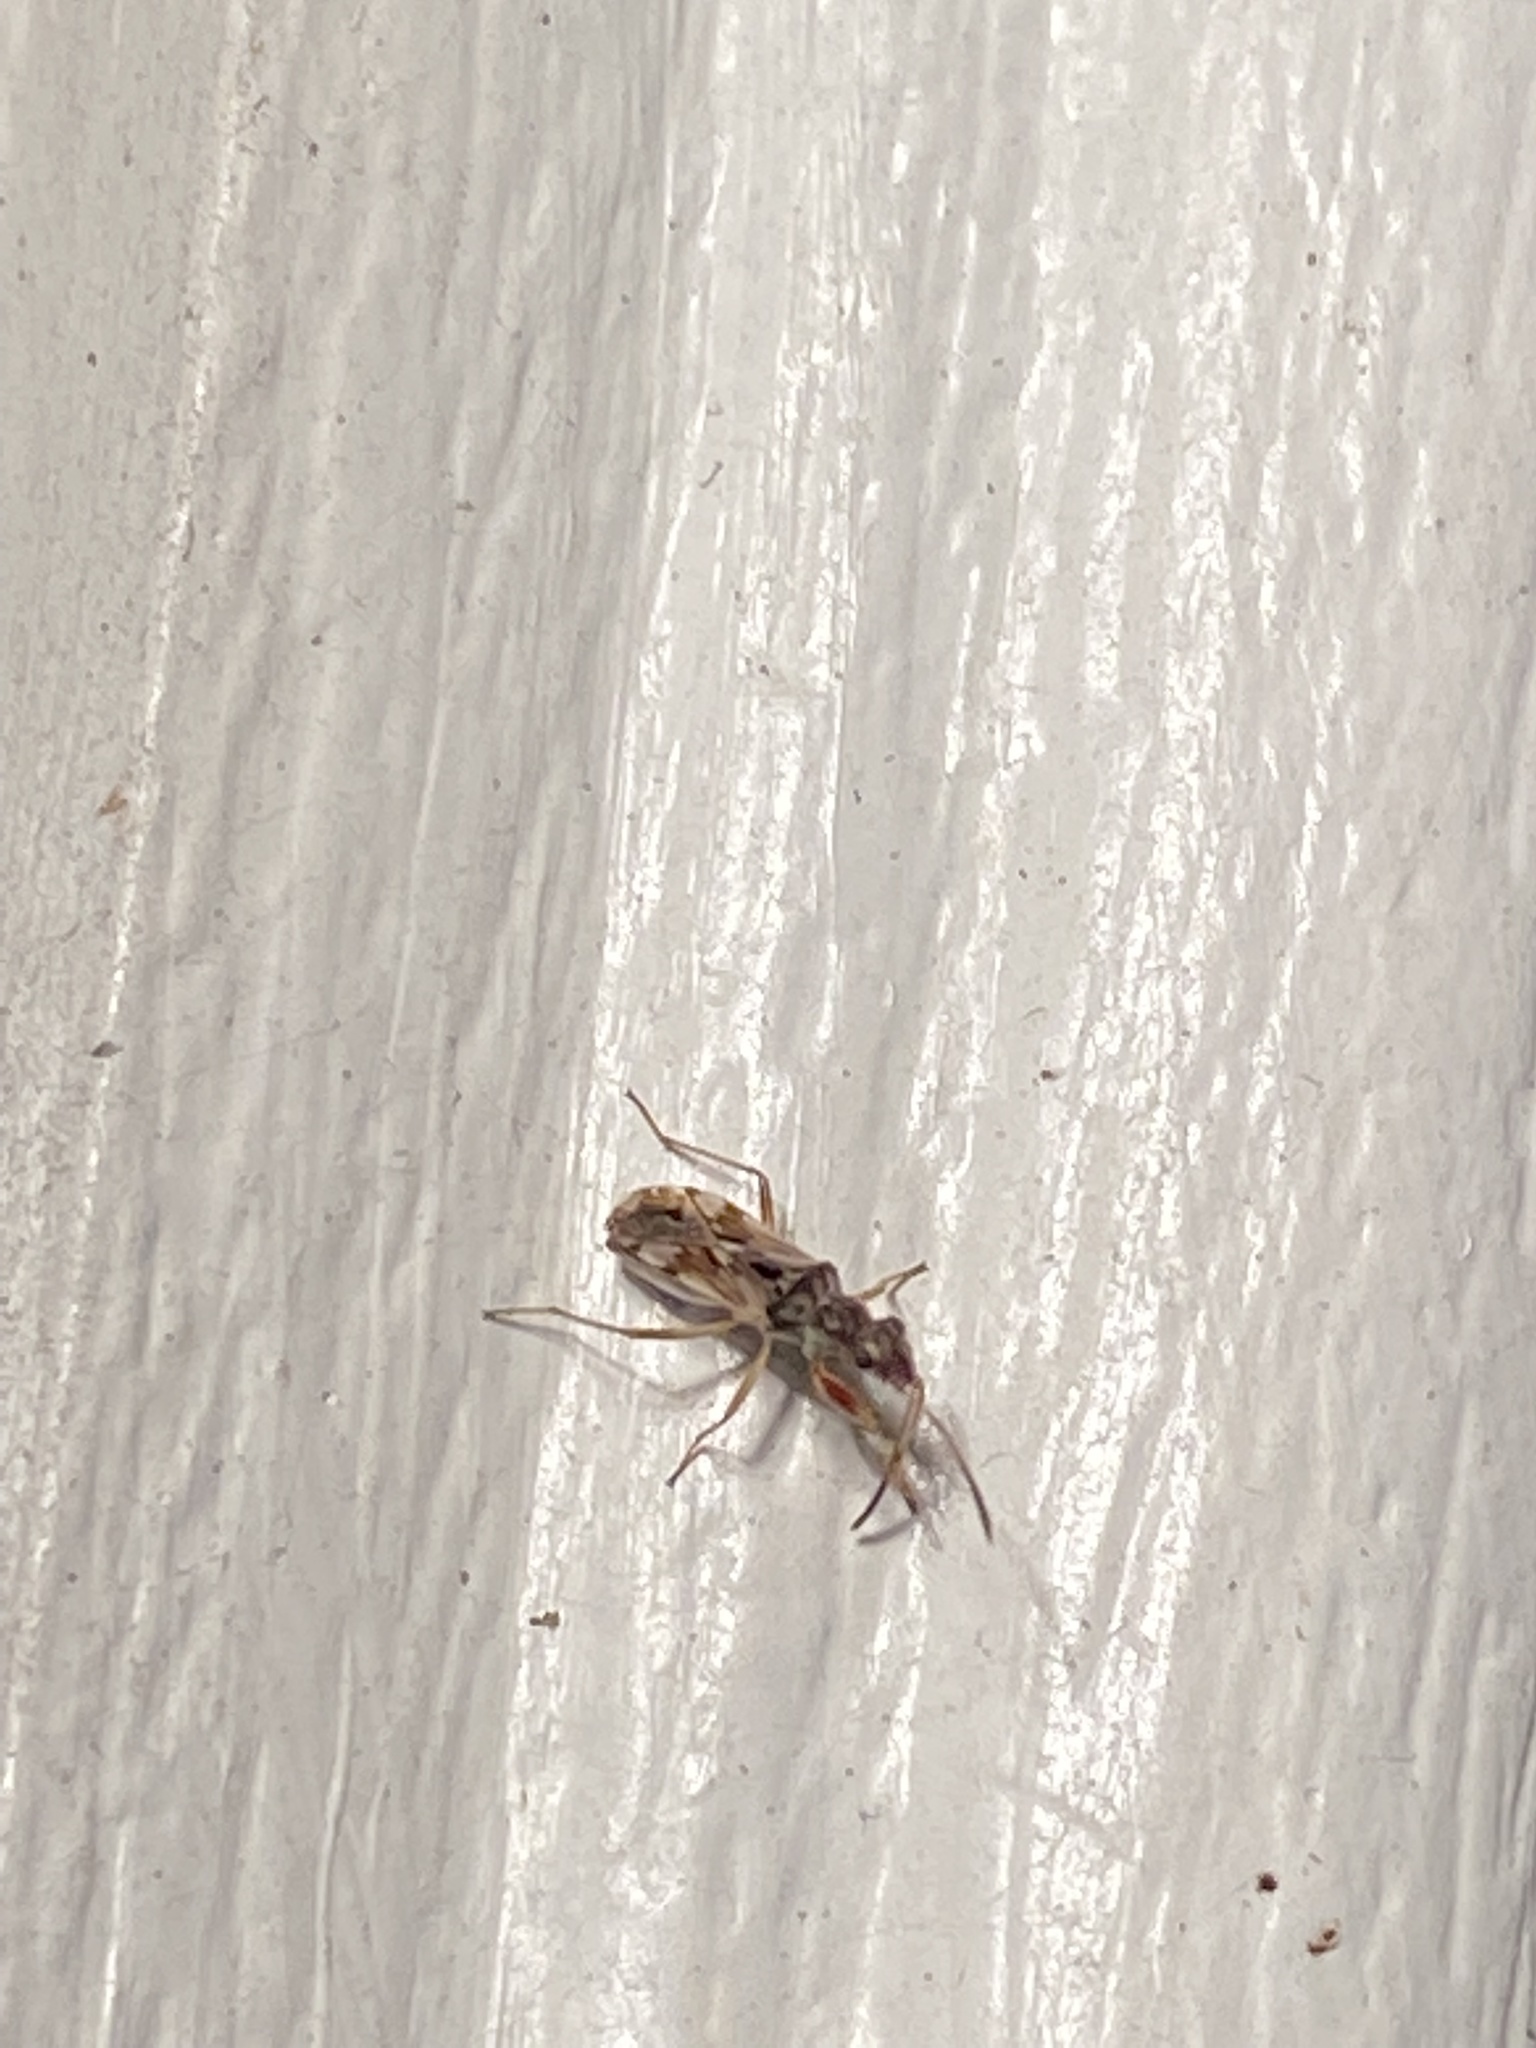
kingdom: Animalia
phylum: Arthropoda
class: Insecta
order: Hemiptera
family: Rhyparochromidae
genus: Neopamera
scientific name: Neopamera bilobata
